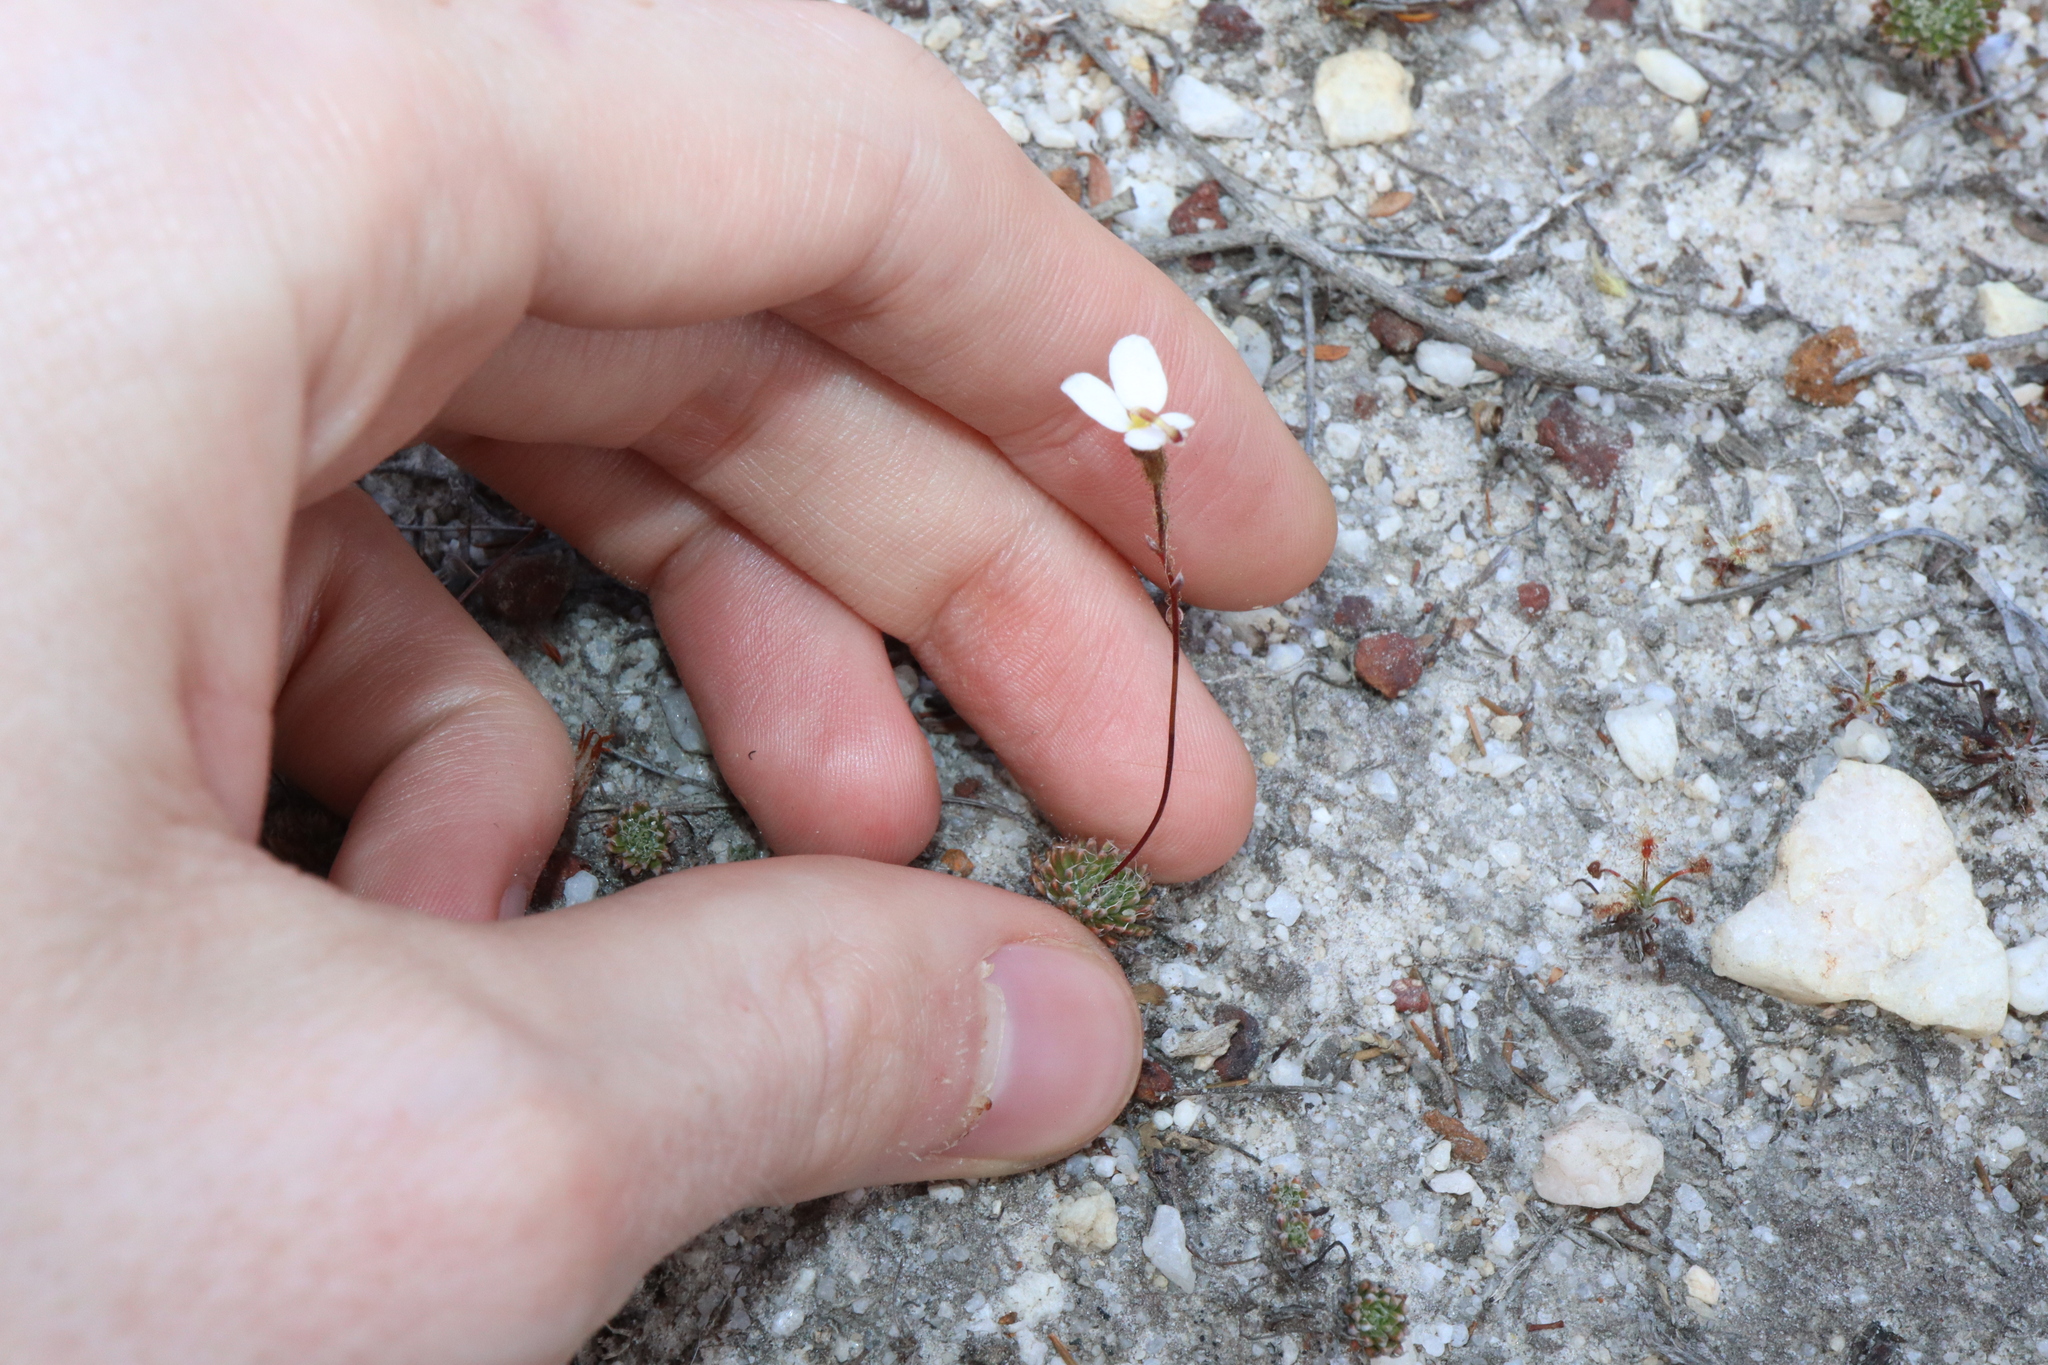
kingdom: Plantae
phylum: Tracheophyta
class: Magnoliopsida
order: Asterales
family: Stylidiaceae
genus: Stylidium
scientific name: Stylidium piliferum
